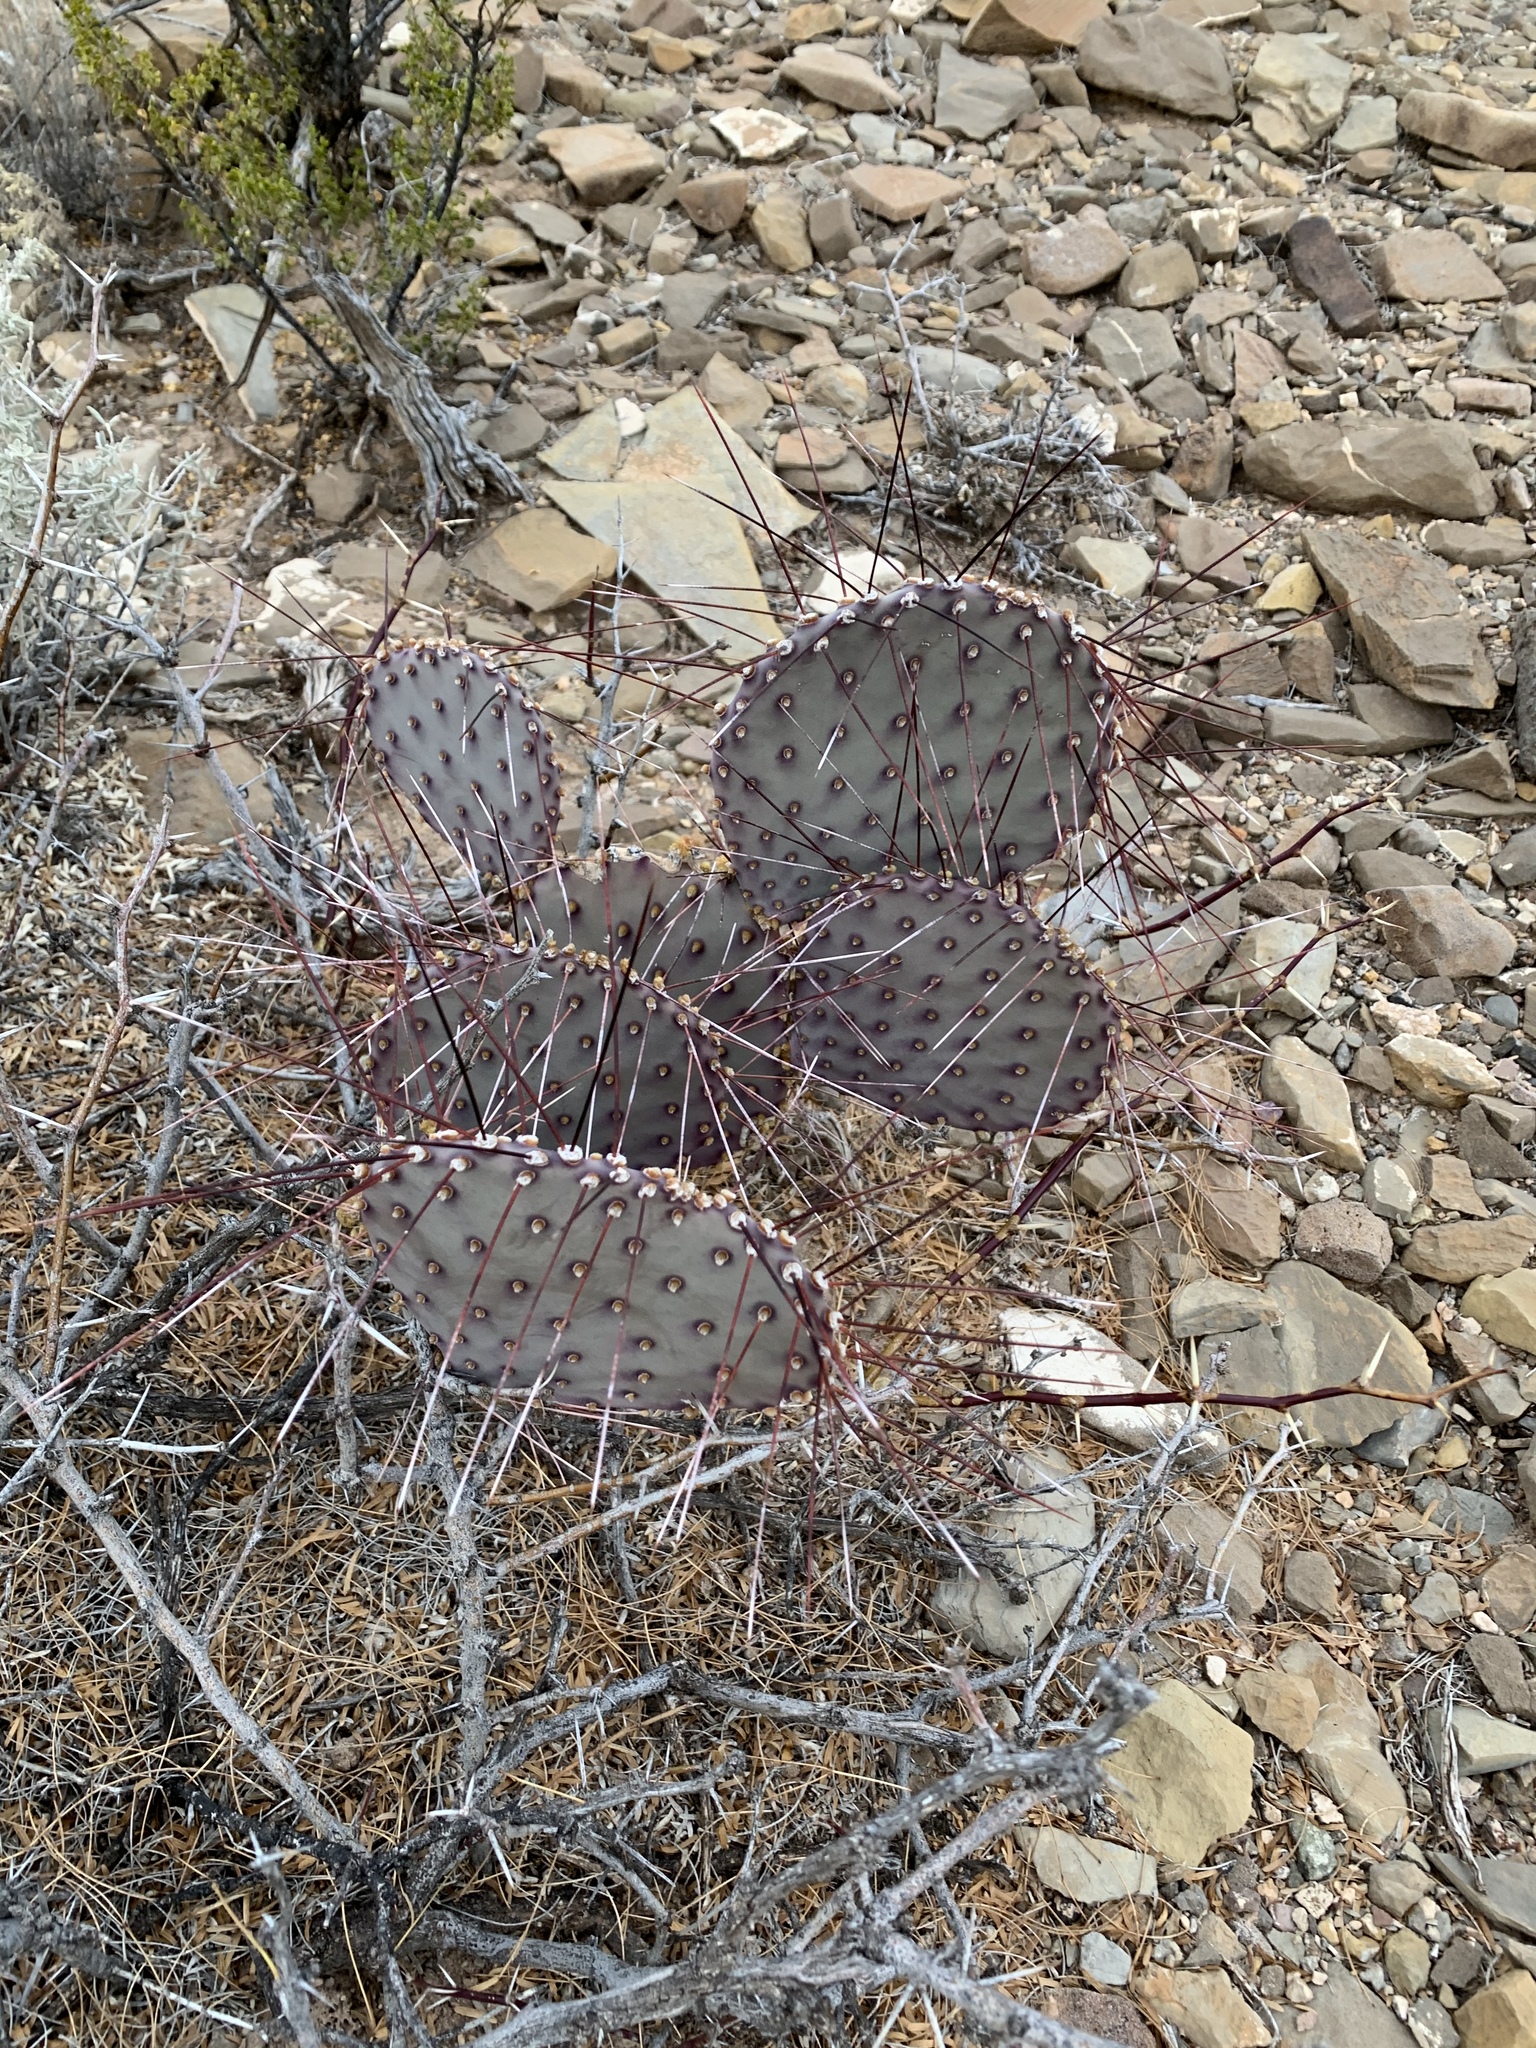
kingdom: Plantae
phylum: Tracheophyta
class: Magnoliopsida
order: Caryophyllales
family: Cactaceae
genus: Opuntia
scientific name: Opuntia macrocentra
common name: Purple prickly-pear
